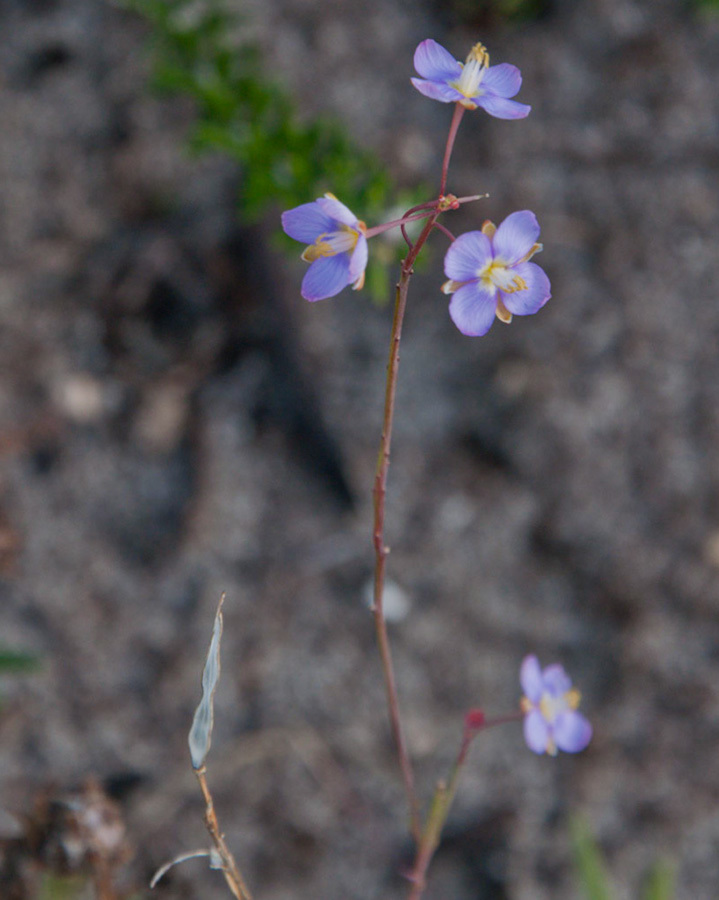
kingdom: Plantae
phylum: Tracheophyta
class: Magnoliopsida
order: Brassicales
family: Brassicaceae
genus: Heliophila
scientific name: Heliophila linearis
